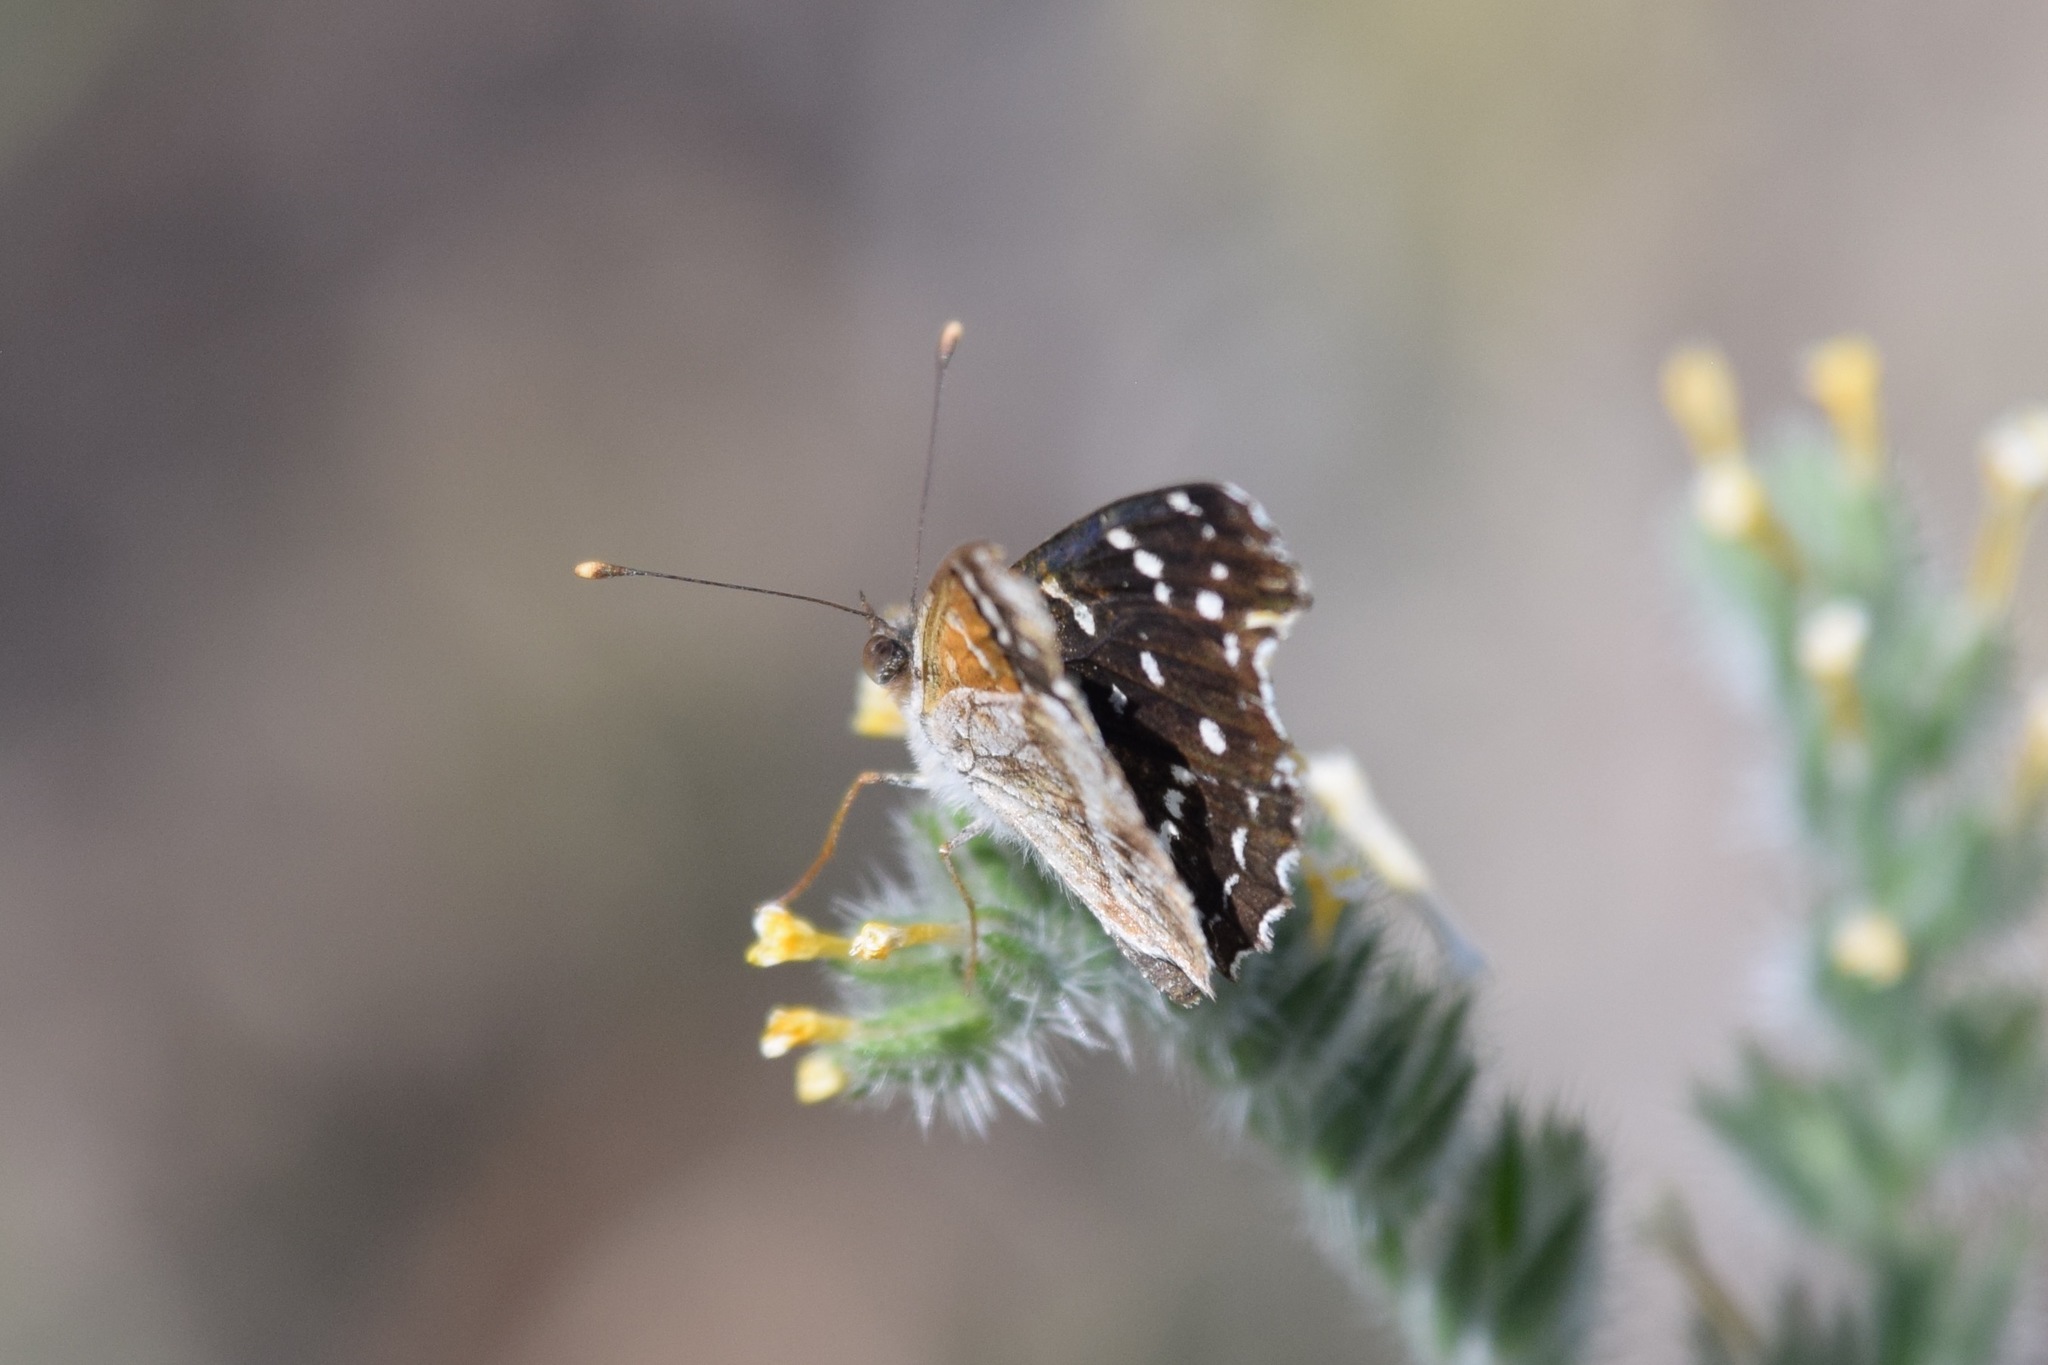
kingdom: Animalia
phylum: Arthropoda
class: Insecta
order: Lepidoptera
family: Nymphalidae
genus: Anthanassa
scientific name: Anthanassa texana
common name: Texan crescent
